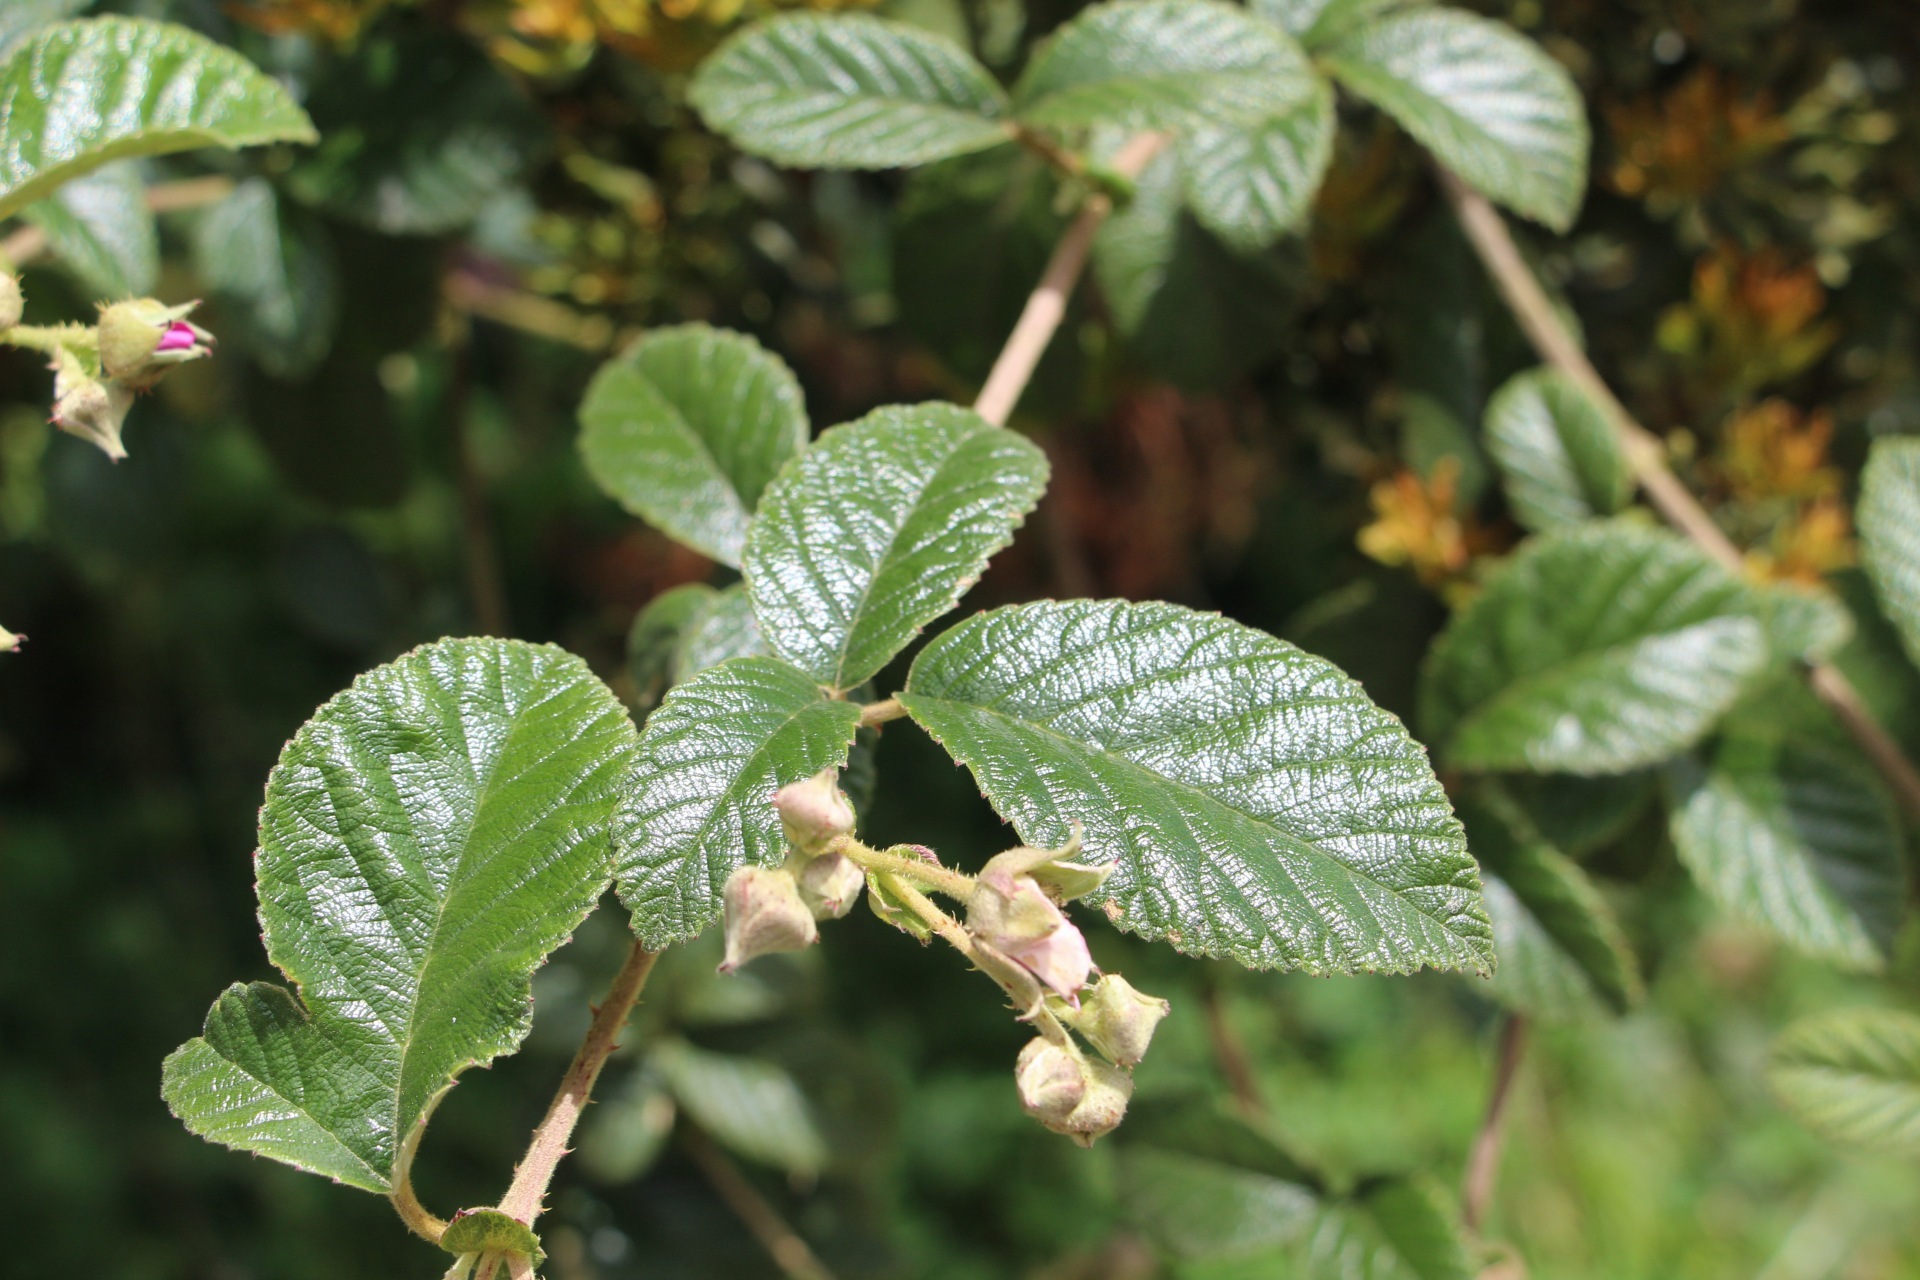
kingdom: Plantae
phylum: Tracheophyta
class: Magnoliopsida
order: Rosales
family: Rosaceae
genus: Rubus
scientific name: Rubus choachiensis
